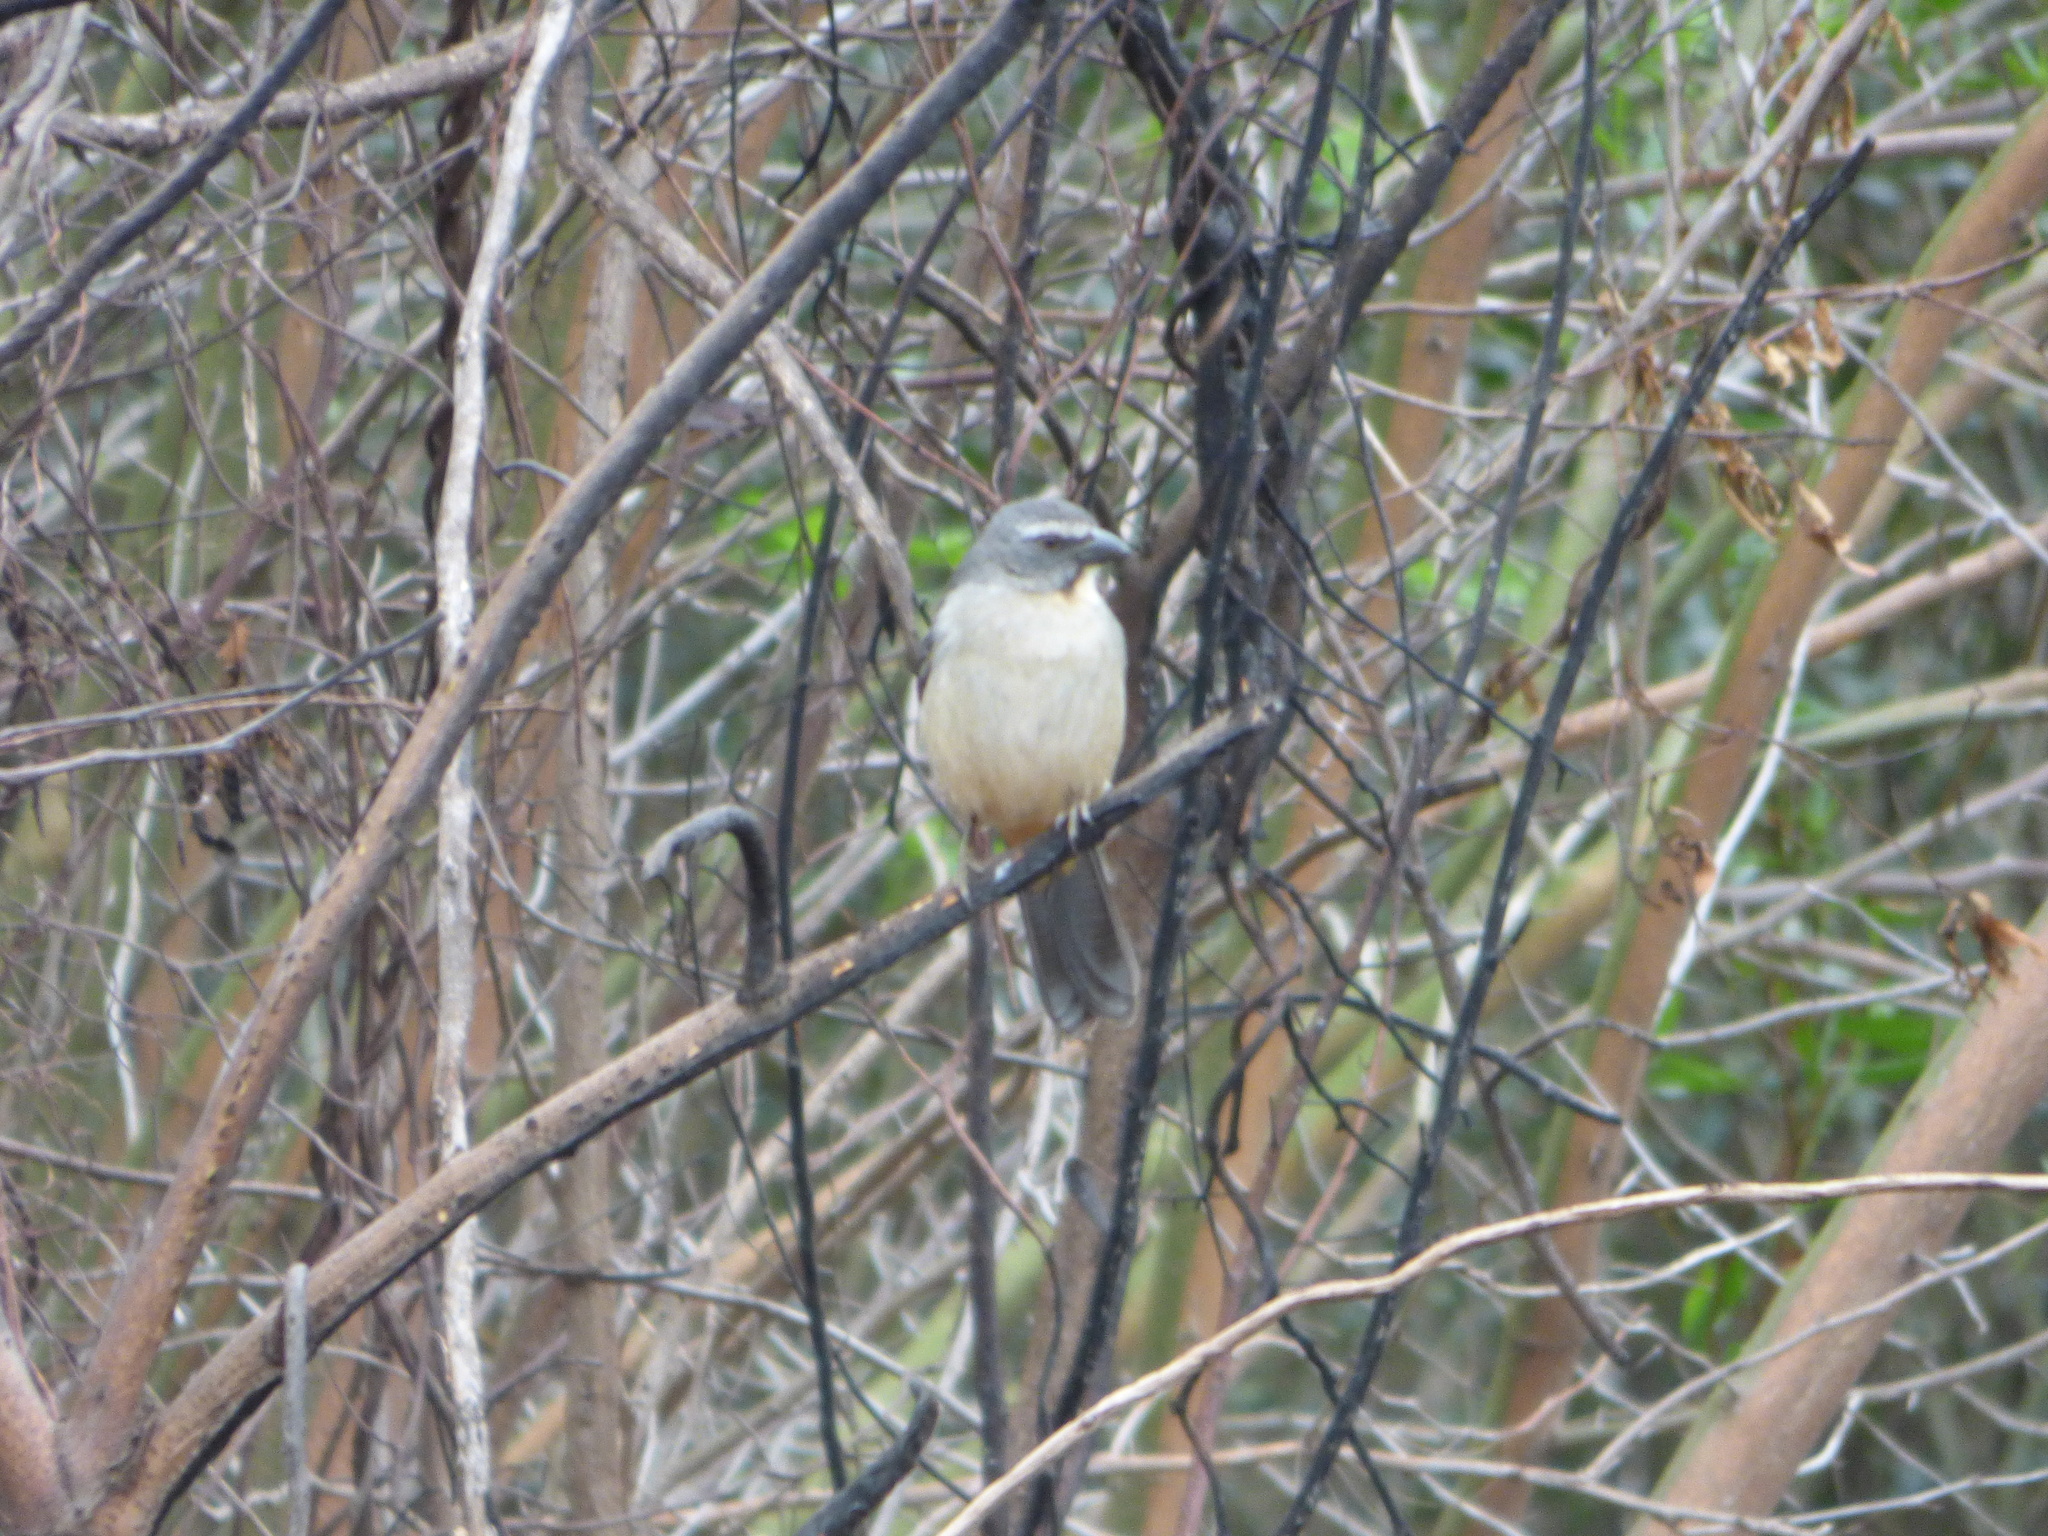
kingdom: Animalia
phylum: Chordata
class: Aves
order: Passeriformes
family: Thraupidae
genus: Saltator
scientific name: Saltator coerulescens
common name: Grayish saltator
